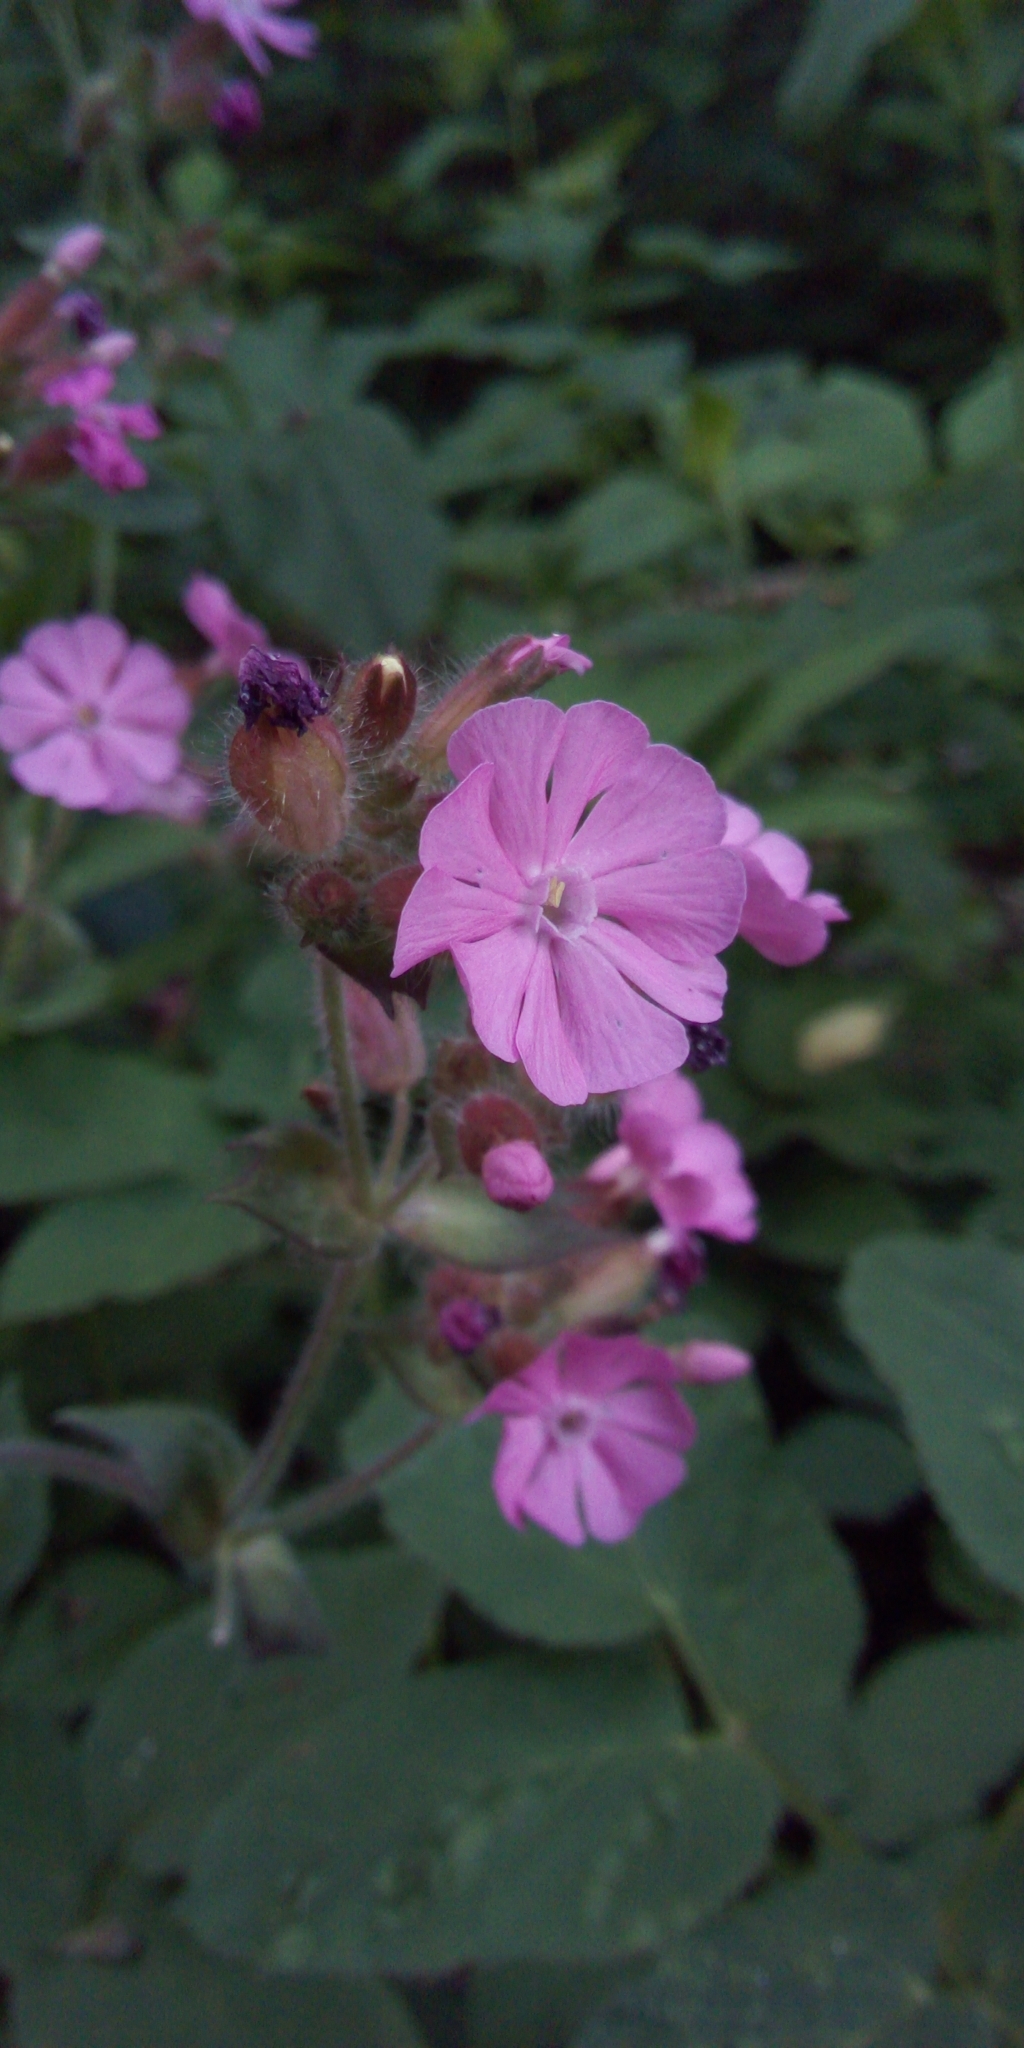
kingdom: Plantae
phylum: Tracheophyta
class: Magnoliopsida
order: Caryophyllales
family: Caryophyllaceae
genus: Silene
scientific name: Silene dioica
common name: Red campion
